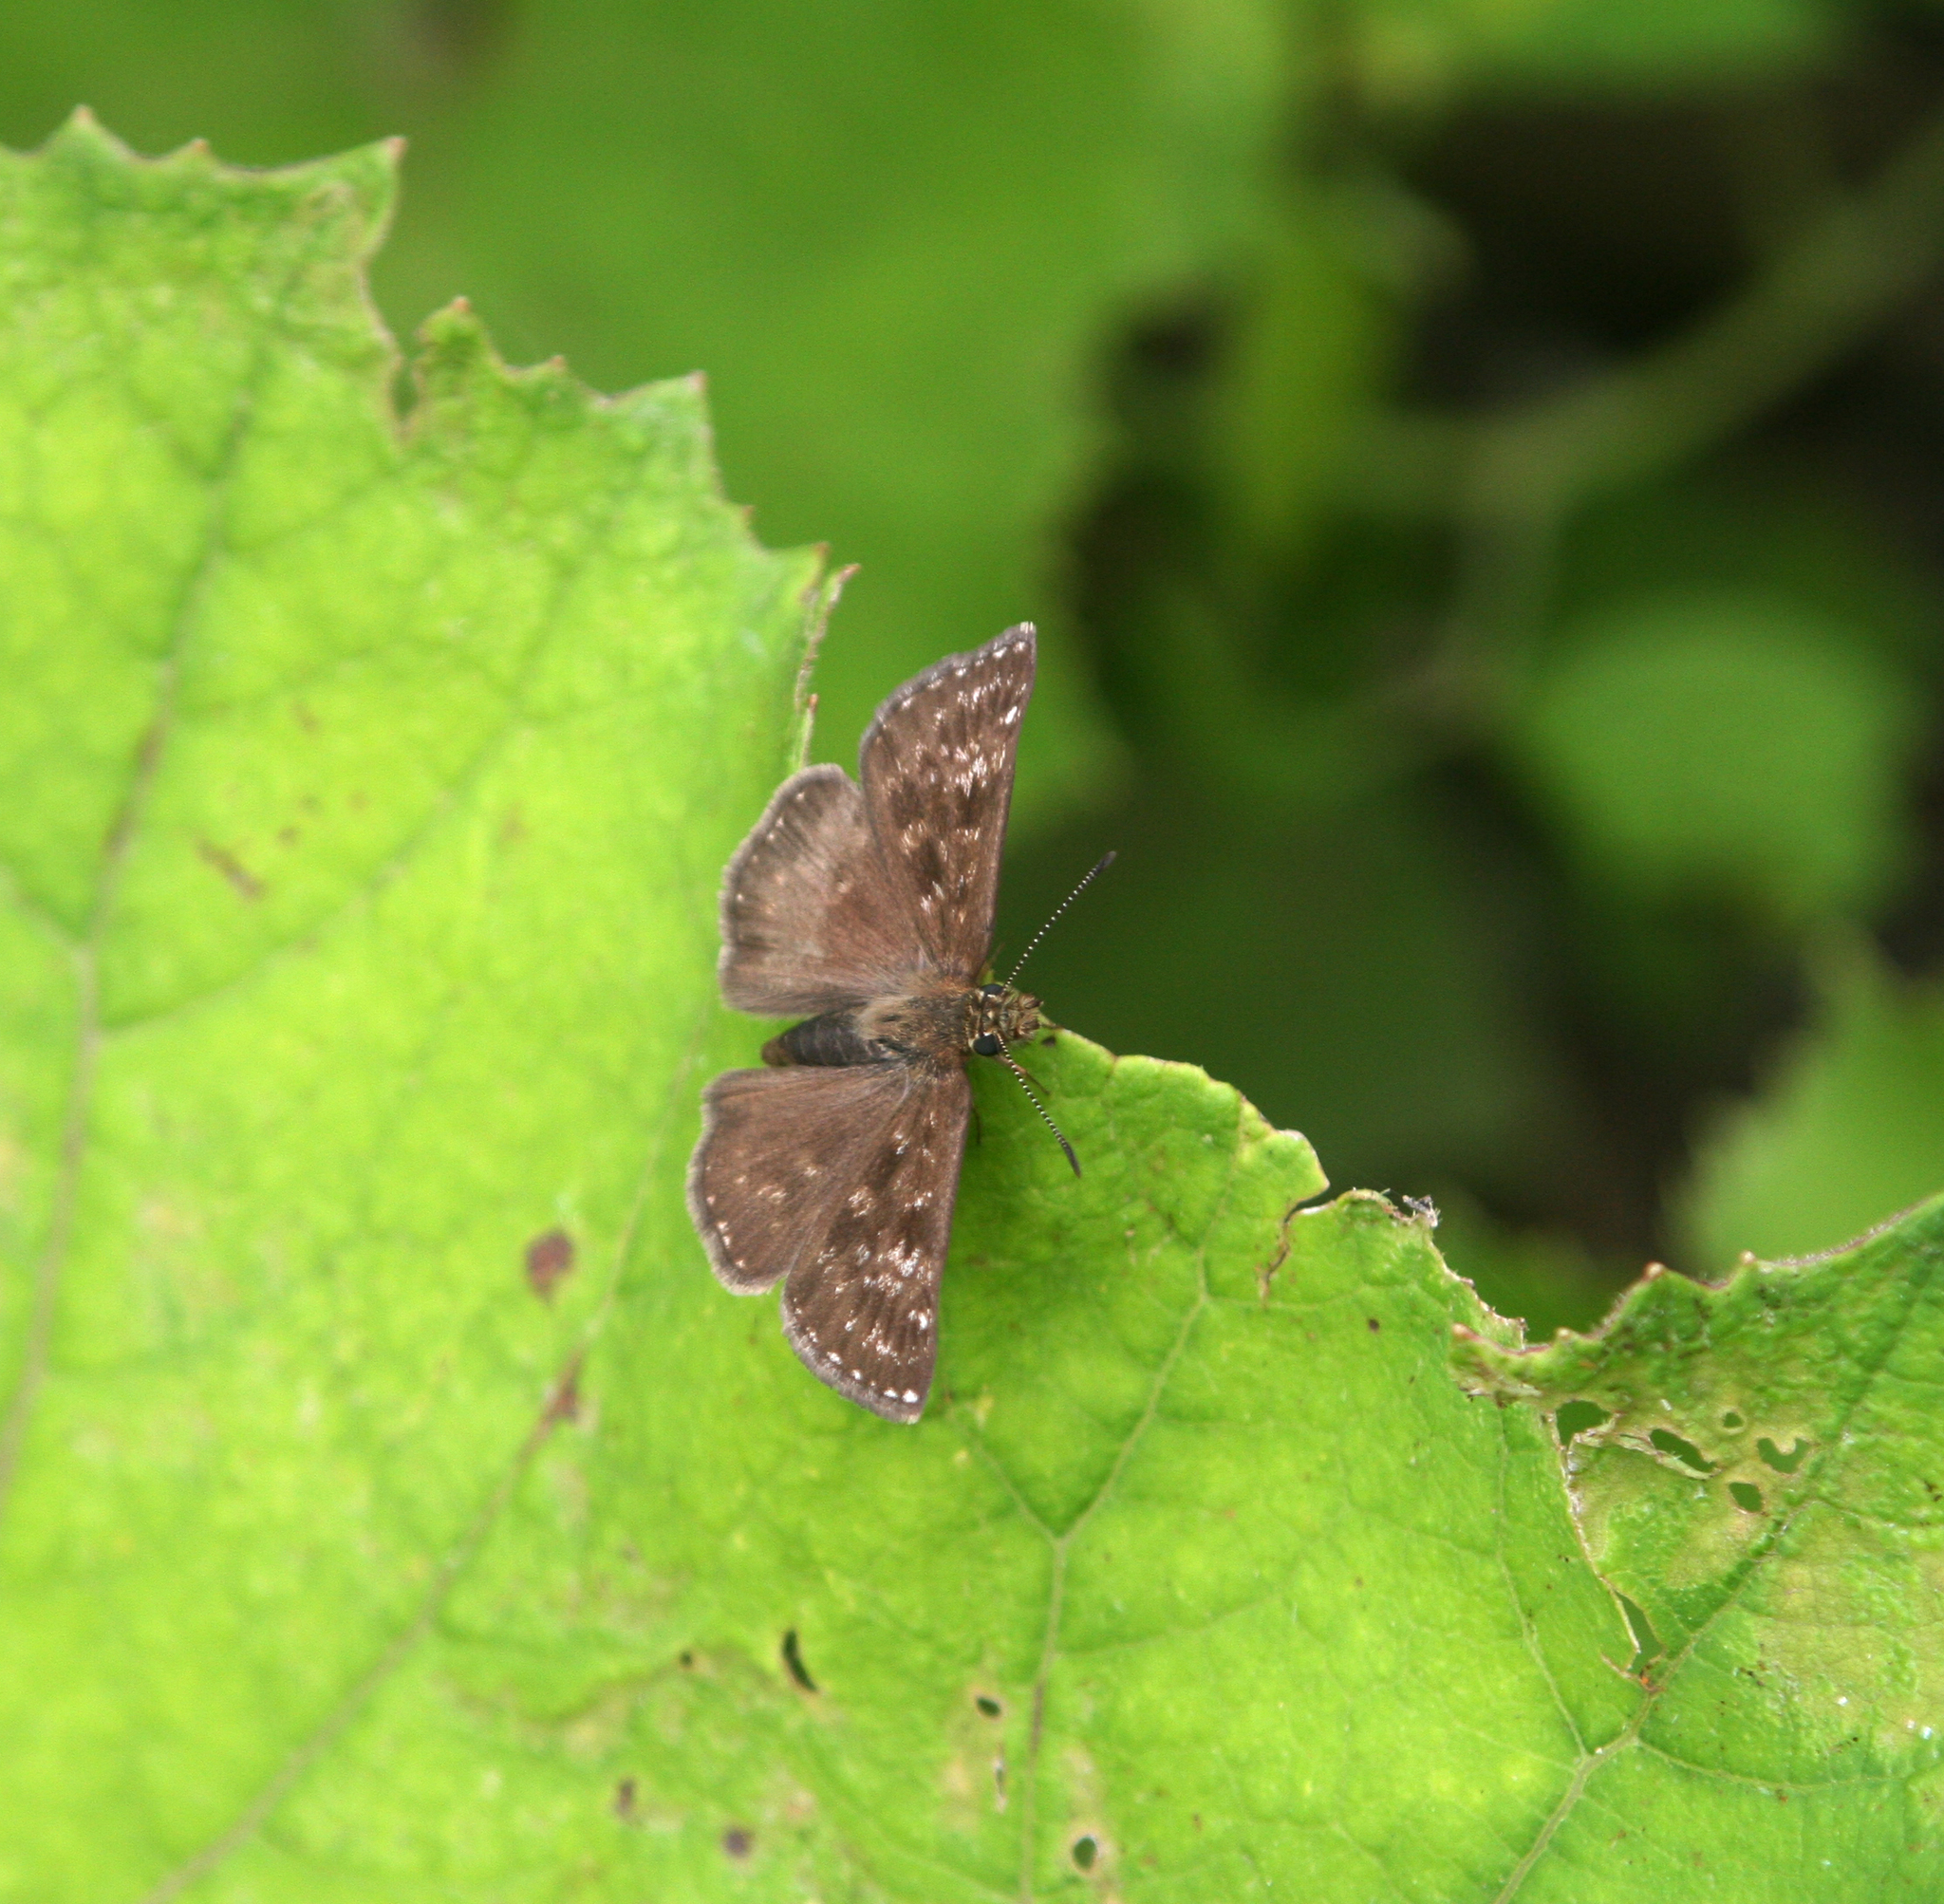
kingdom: Animalia
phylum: Arthropoda
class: Insecta
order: Lepidoptera
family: Hesperiidae
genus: Erynnis
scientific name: Erynnis tages
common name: Dingy skipper
